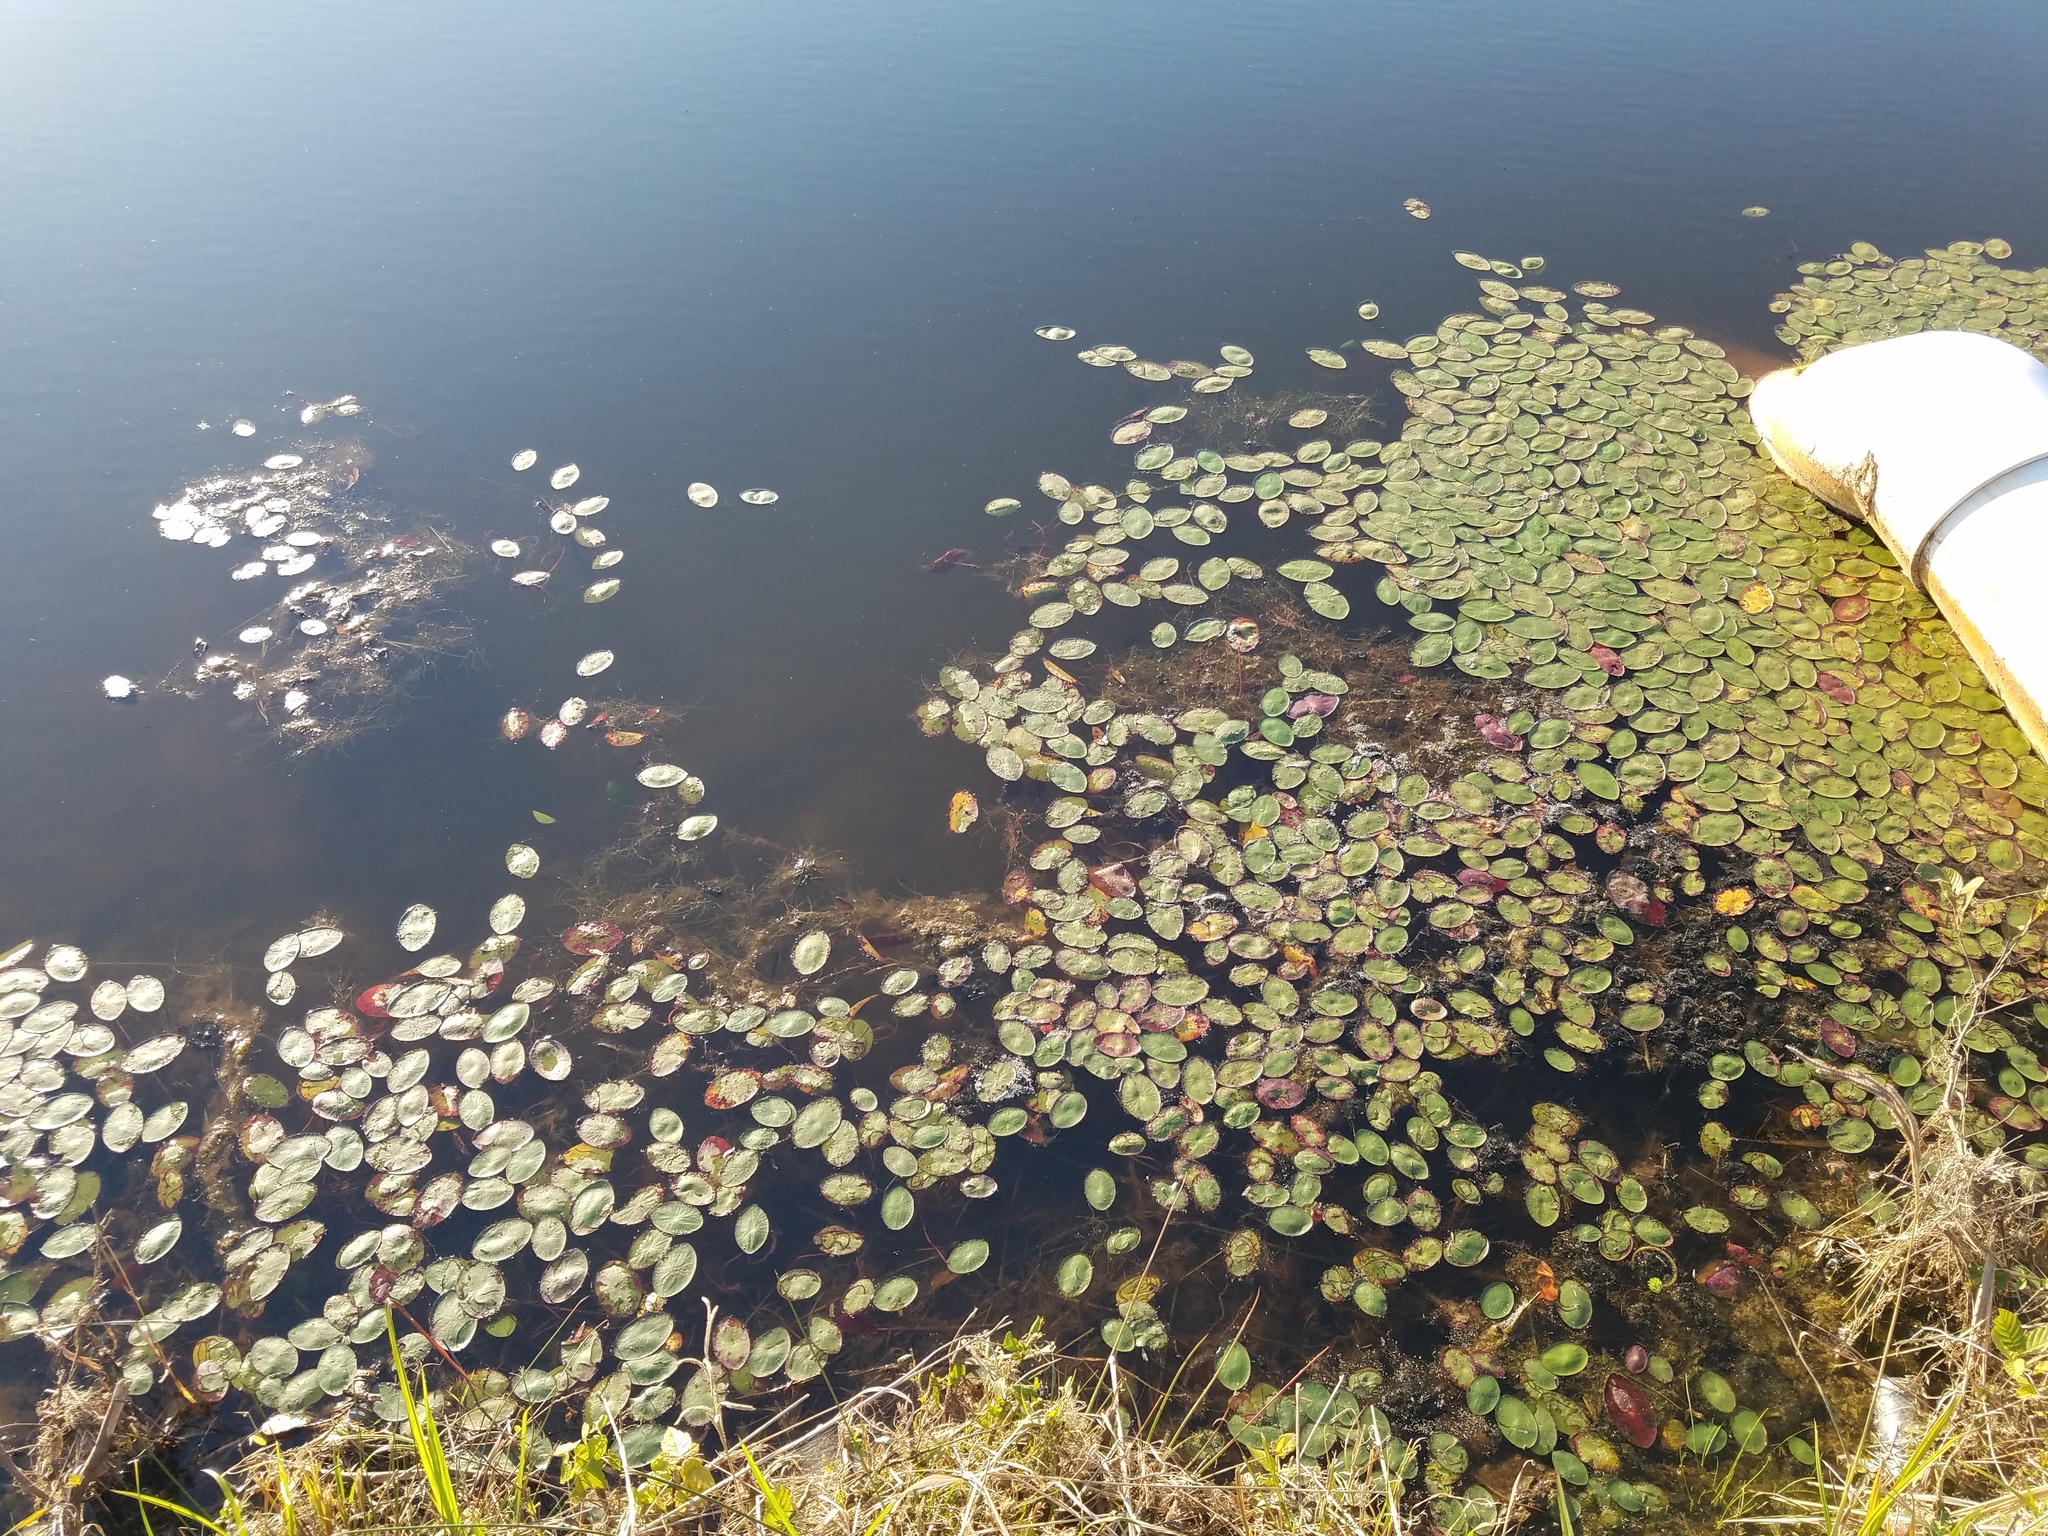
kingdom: Plantae
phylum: Tracheophyta
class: Magnoliopsida
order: Nymphaeales
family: Cabombaceae
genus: Brasenia
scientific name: Brasenia schreberi
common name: Water-shield
